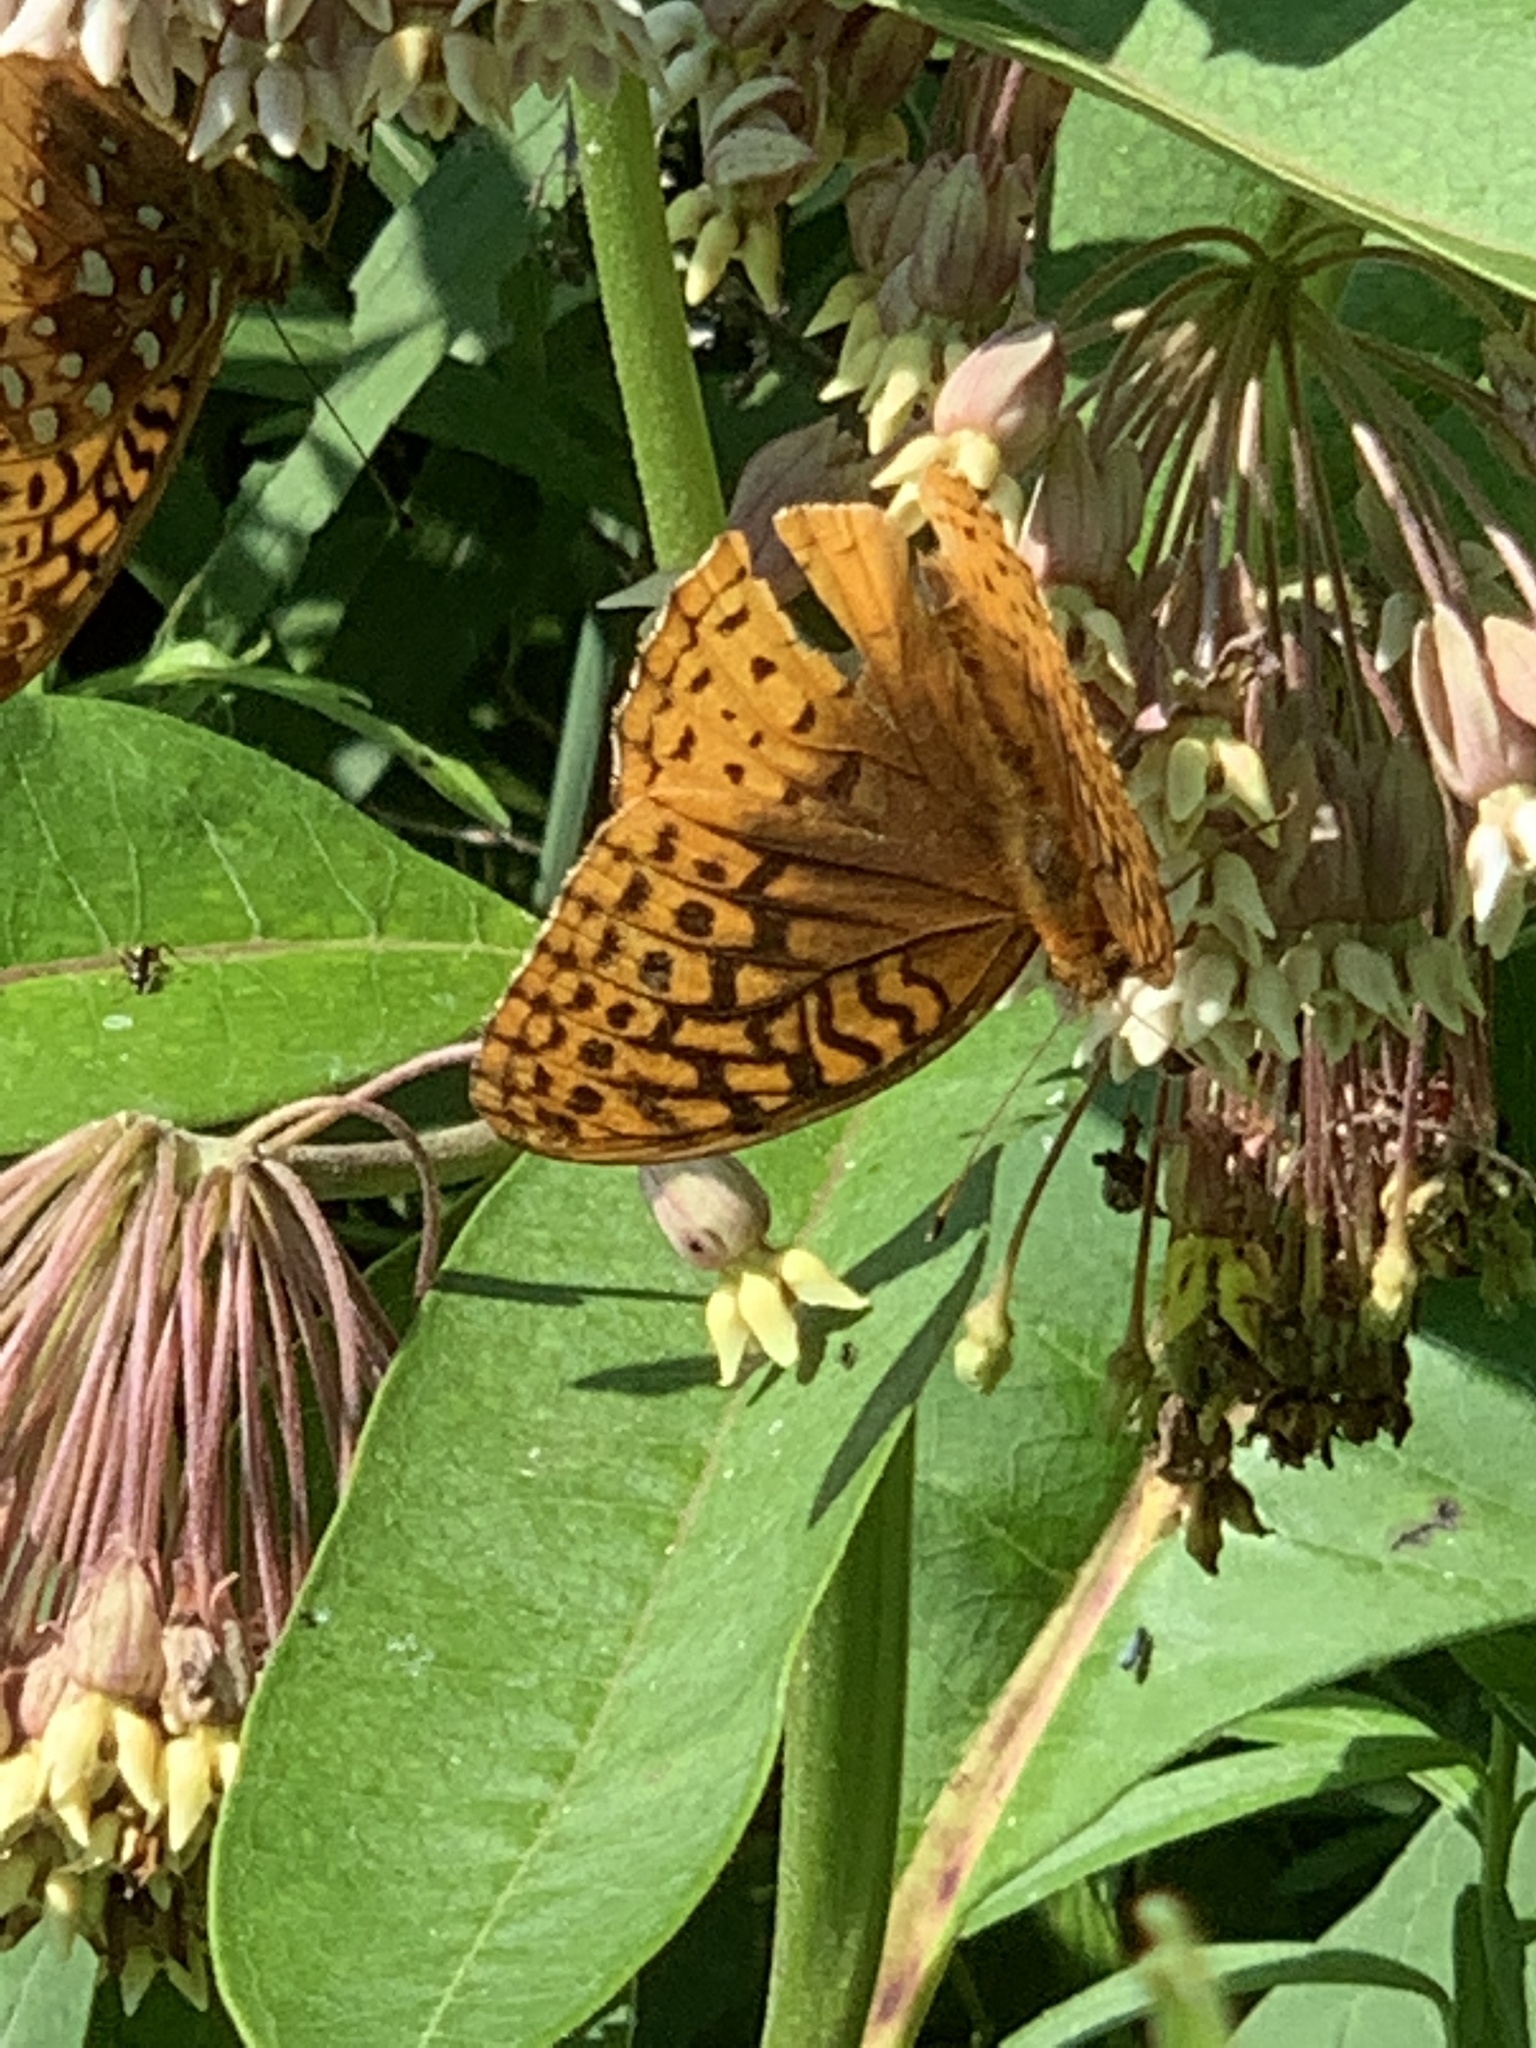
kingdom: Animalia
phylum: Arthropoda
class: Insecta
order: Lepidoptera
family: Nymphalidae
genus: Speyeria
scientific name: Speyeria cybele
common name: Great spangled fritillary
